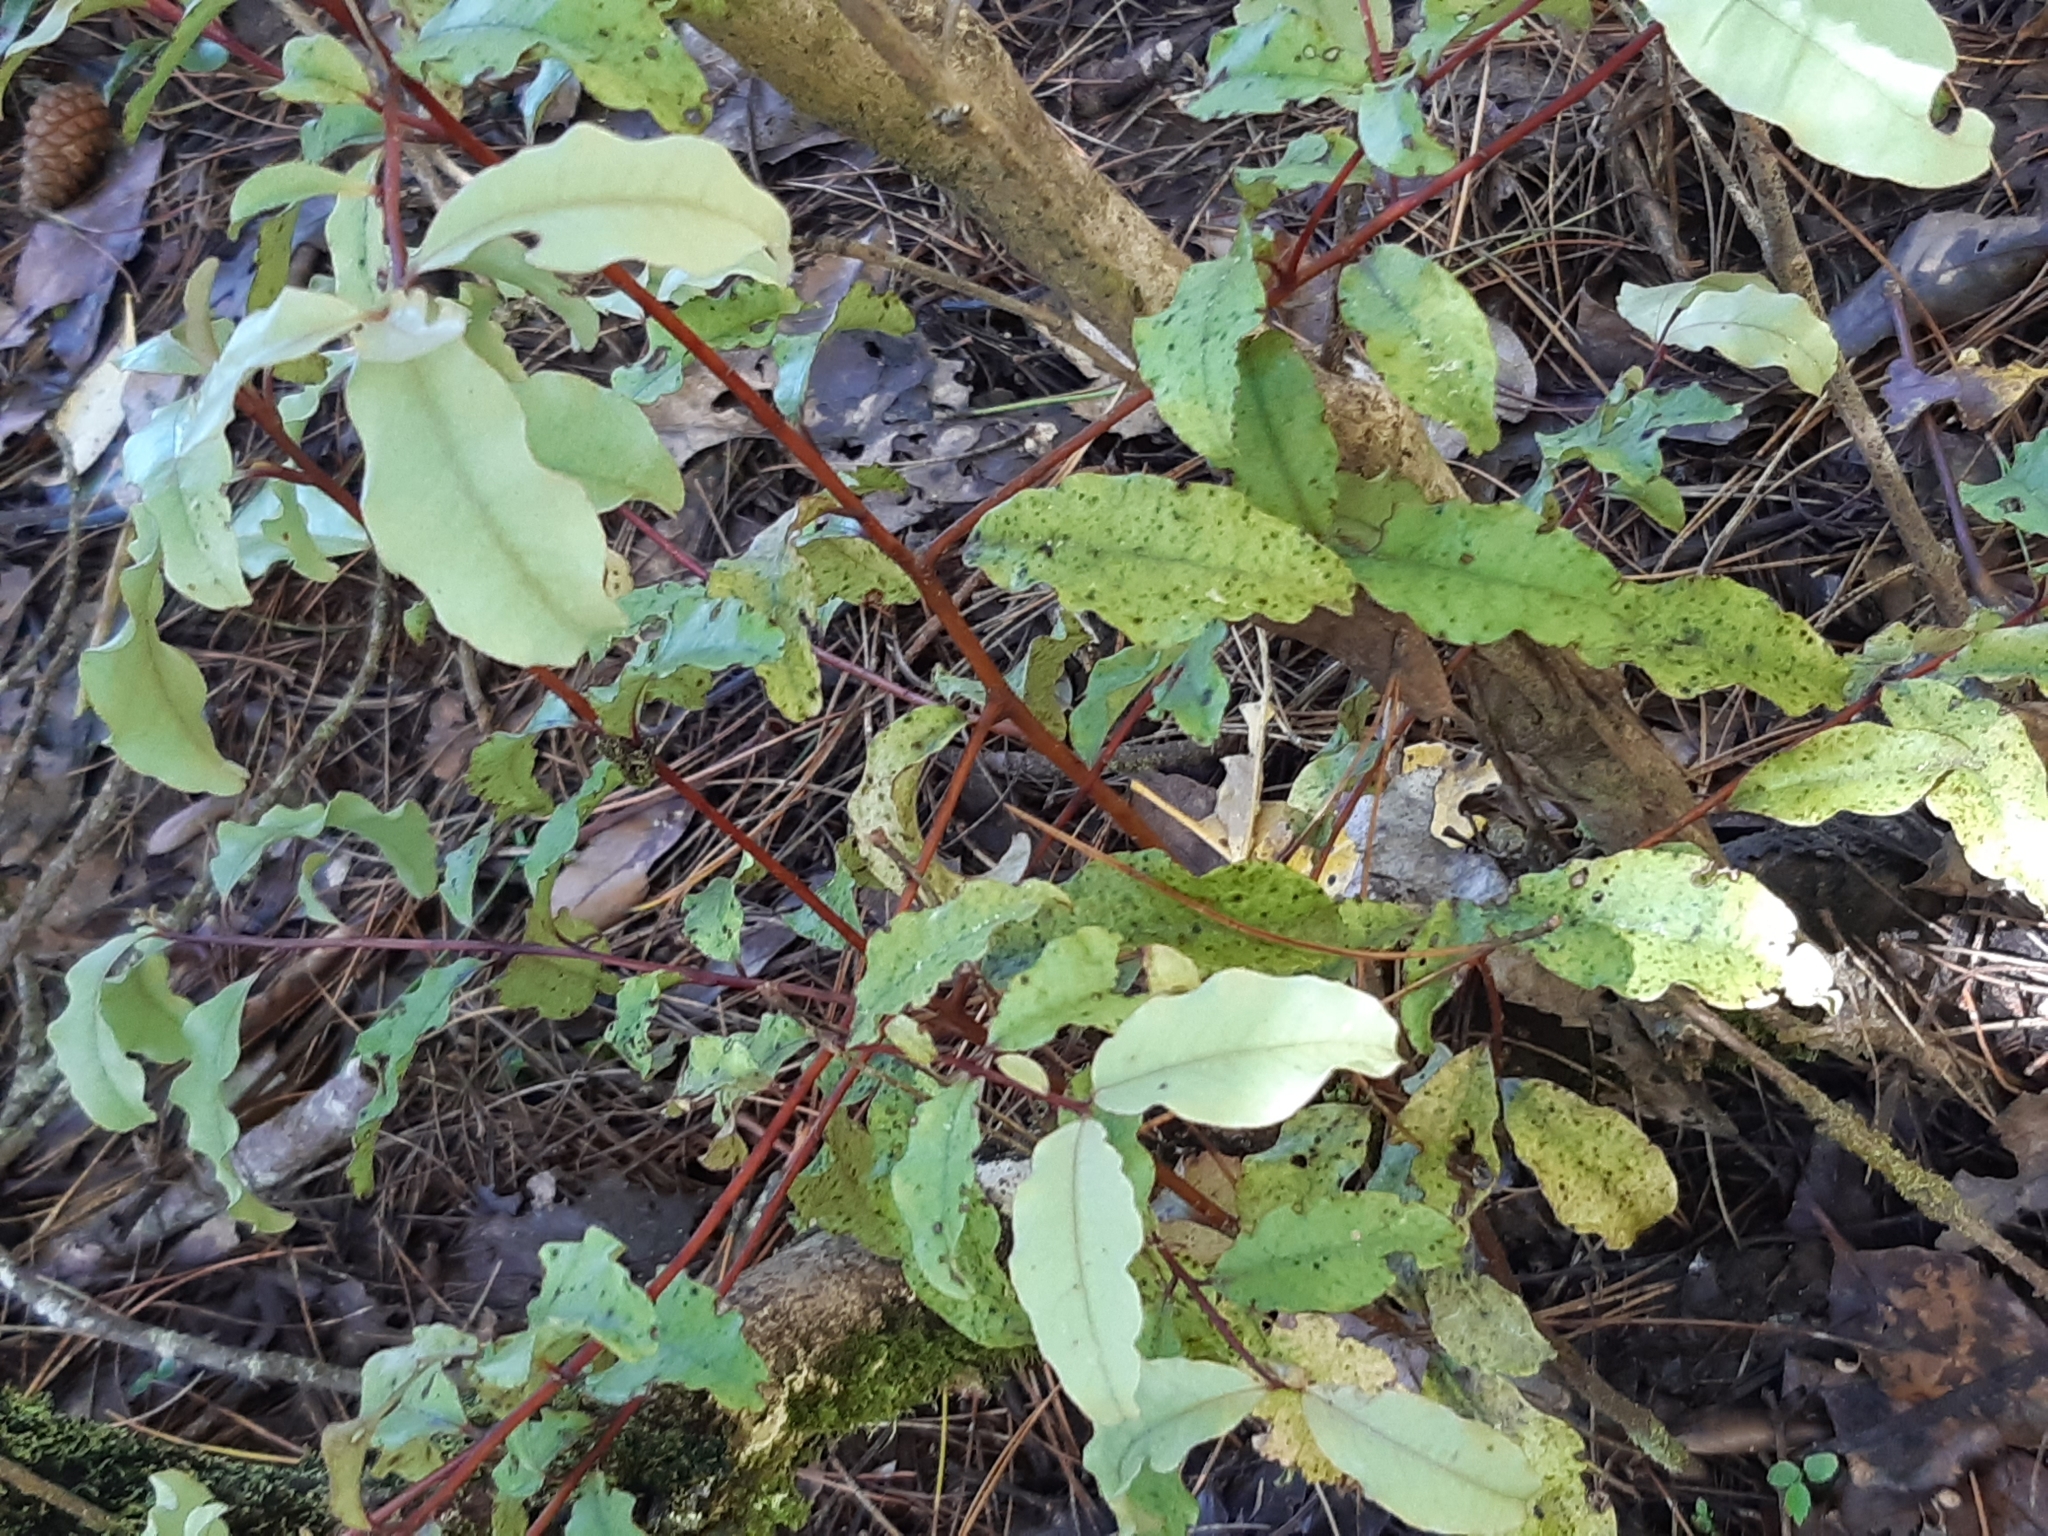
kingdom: Plantae
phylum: Tracheophyta
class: Magnoliopsida
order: Ericales
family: Primulaceae
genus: Myrsine
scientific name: Myrsine australis
